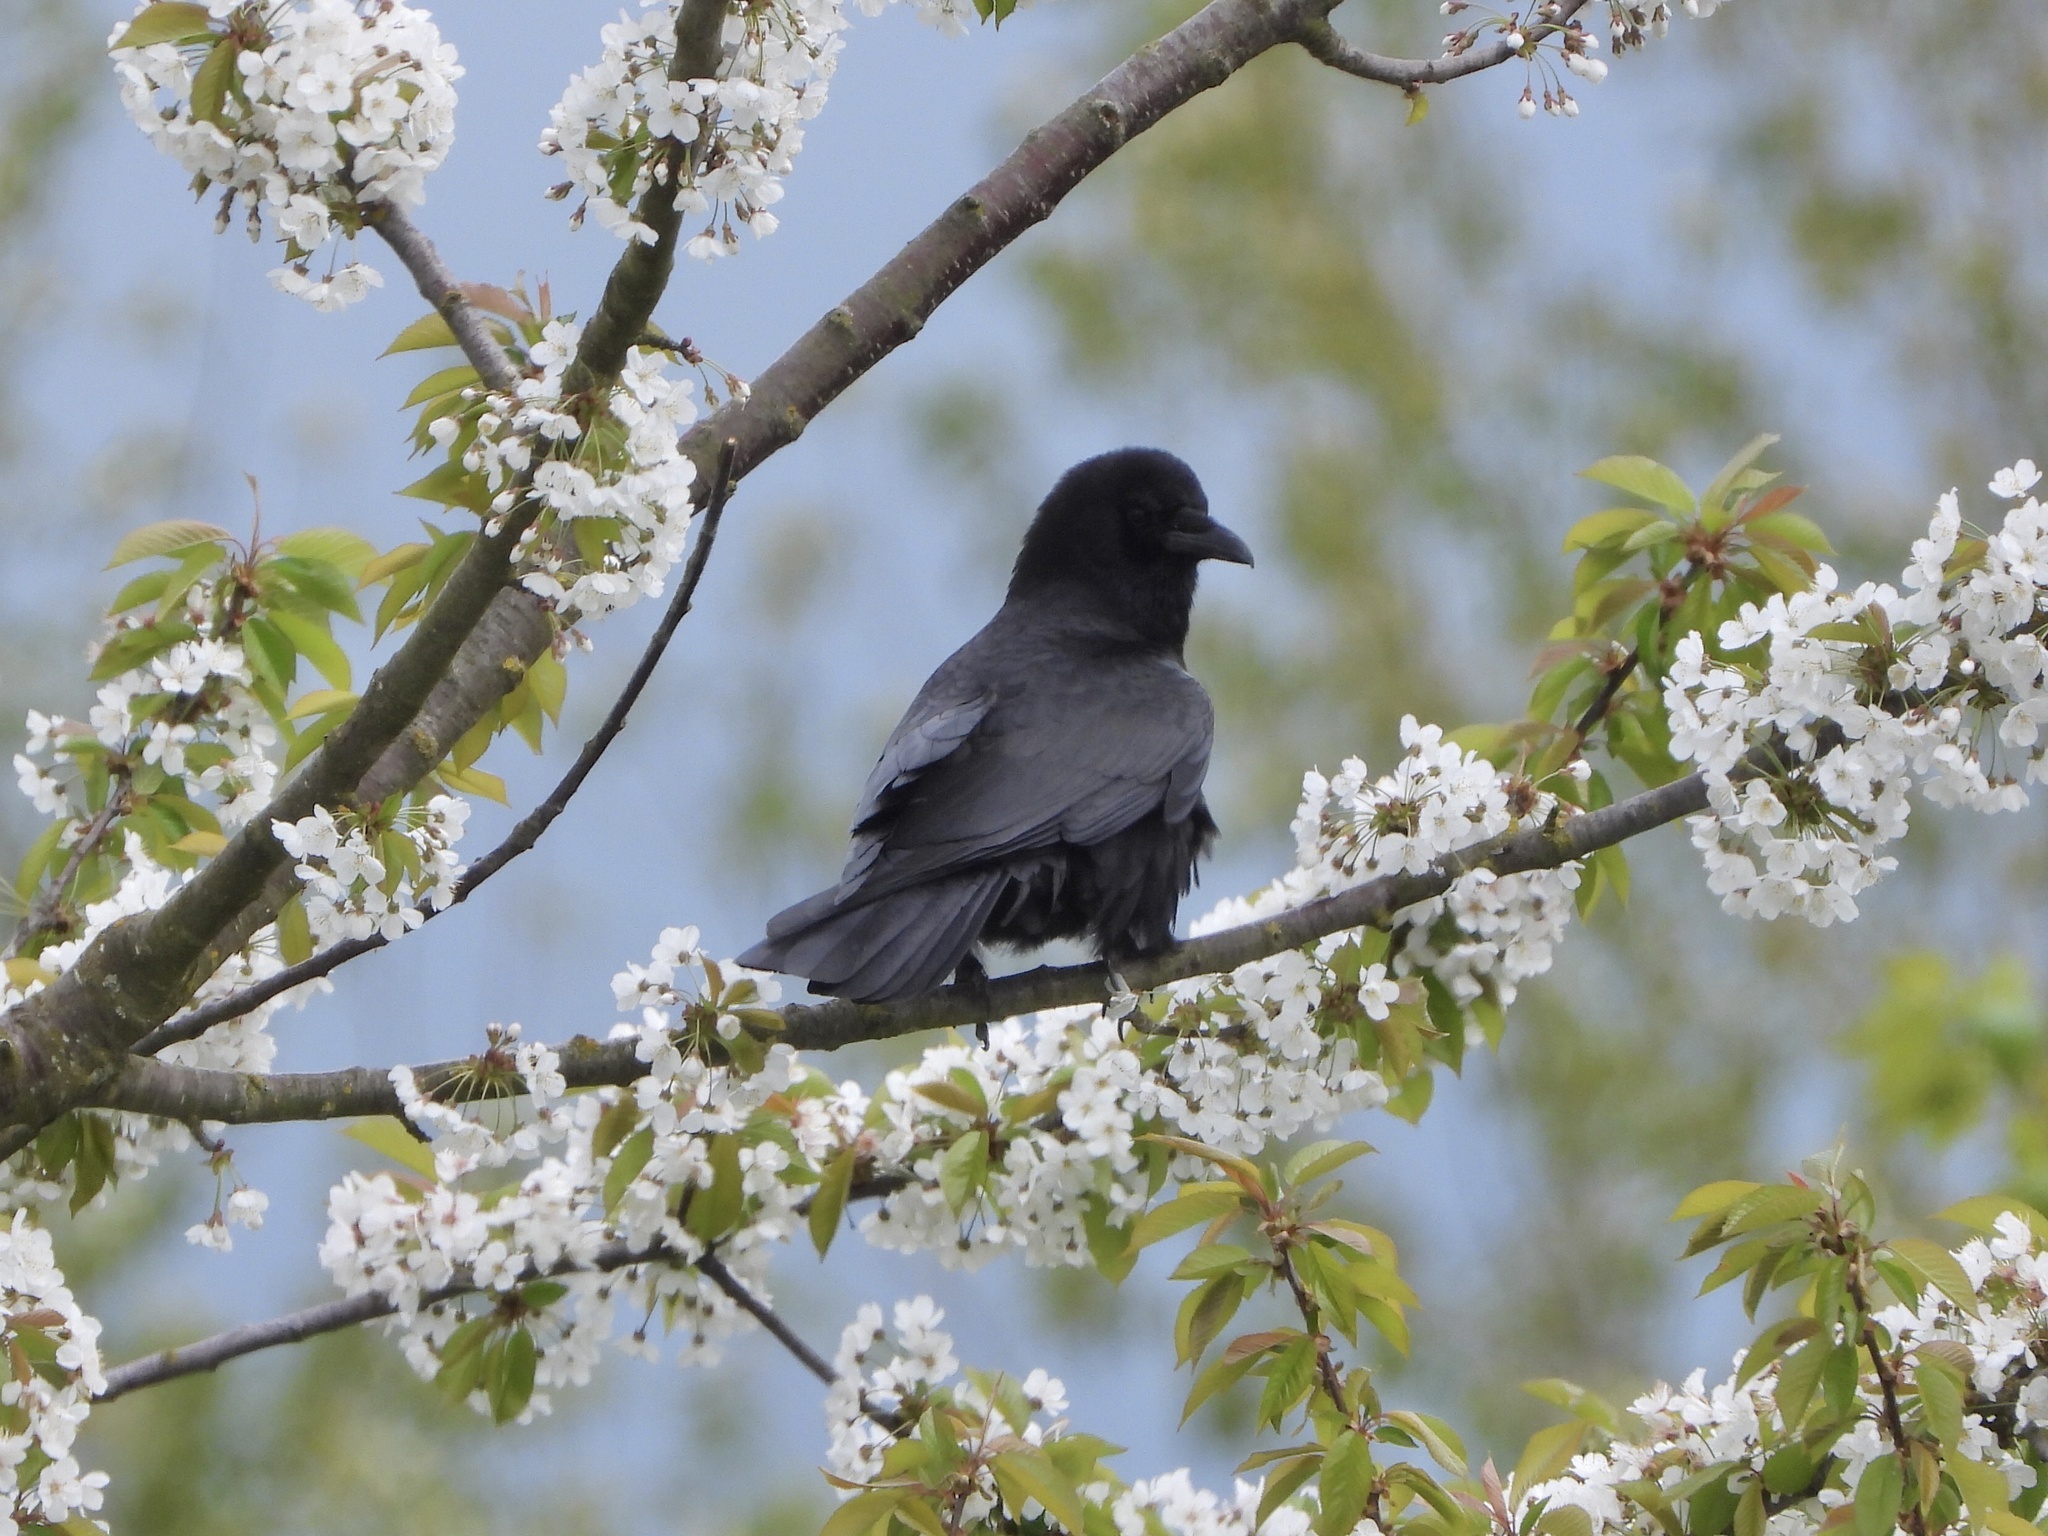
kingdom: Animalia
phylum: Chordata
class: Aves
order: Passeriformes
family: Corvidae
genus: Corvus
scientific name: Corvus brachyrhynchos
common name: American crow
